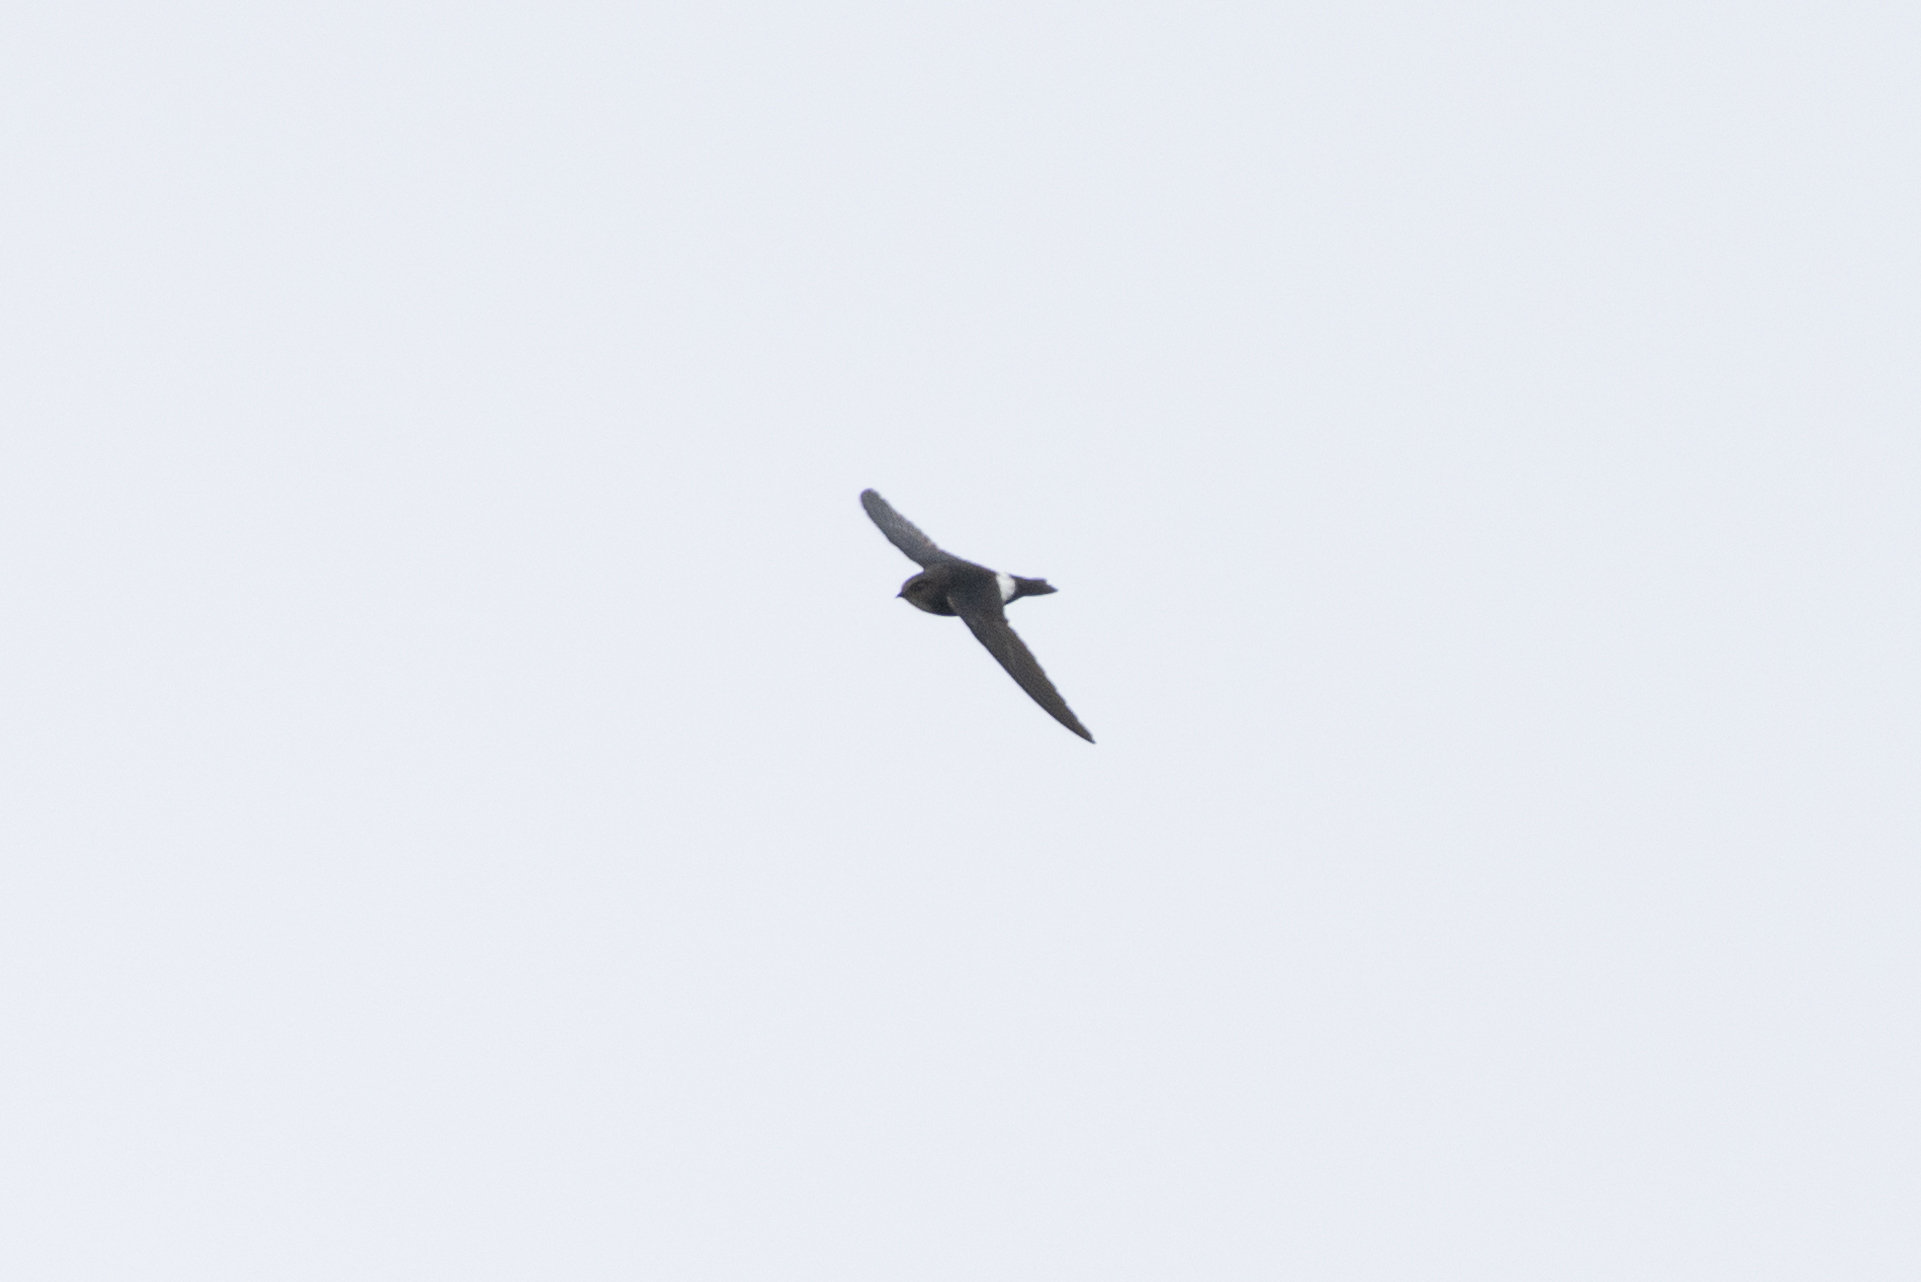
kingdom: Animalia
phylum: Chordata
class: Aves
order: Apodiformes
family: Apodidae
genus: Apus
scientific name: Apus nipalensis
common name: House swift
